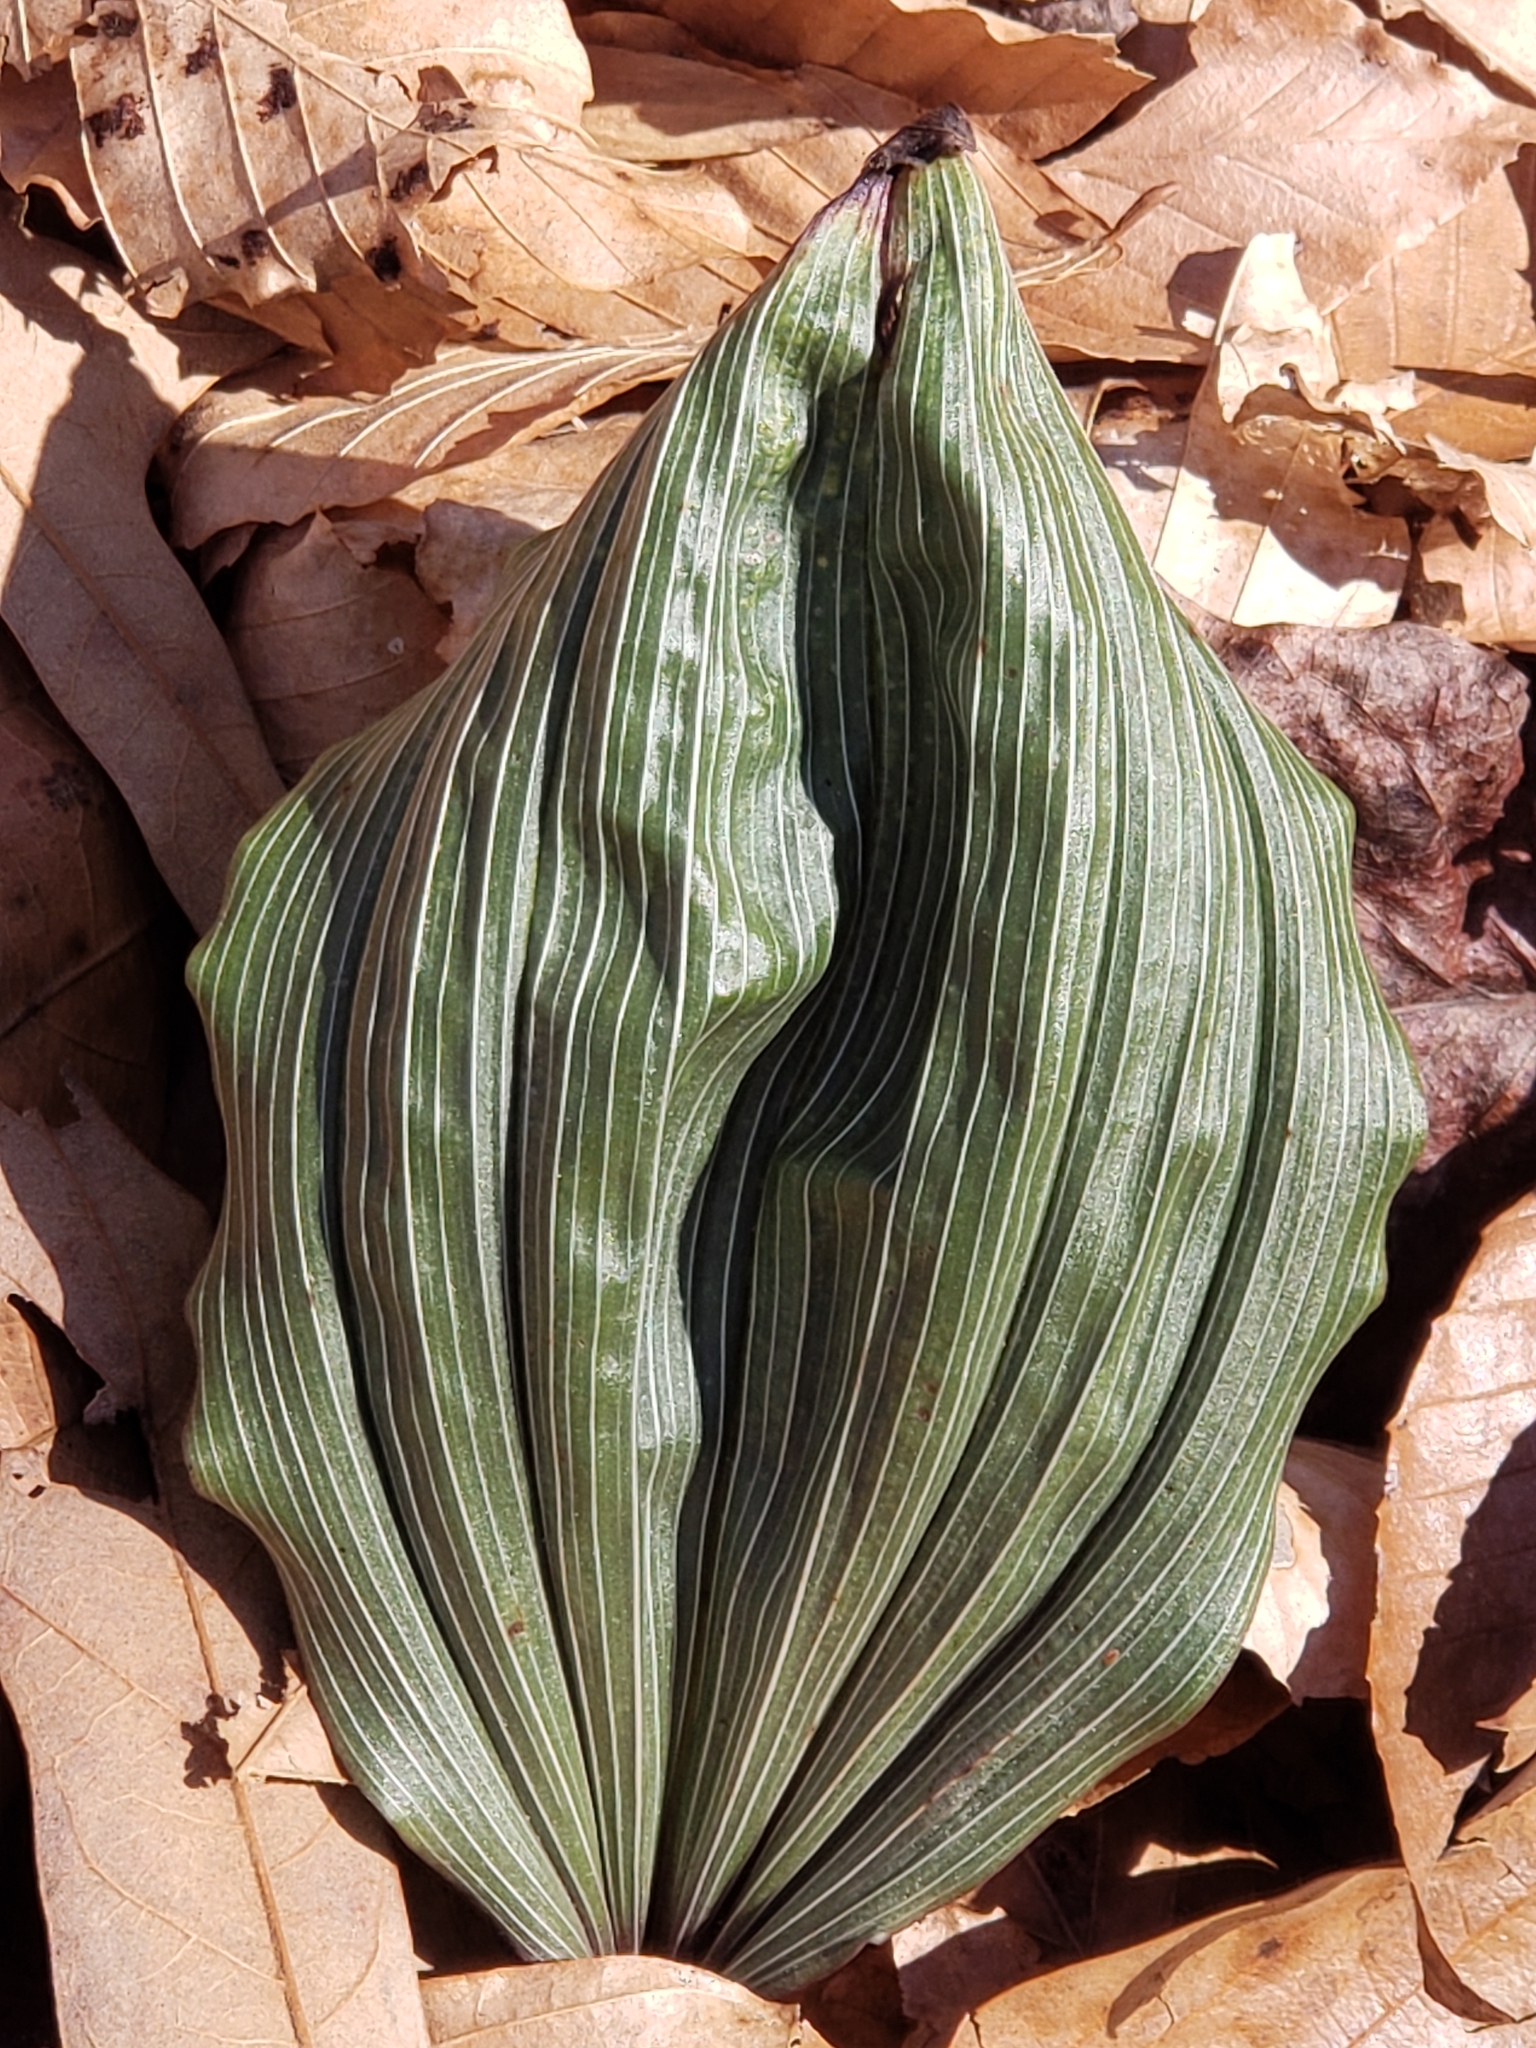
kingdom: Plantae
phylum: Tracheophyta
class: Liliopsida
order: Asparagales
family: Orchidaceae
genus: Aplectrum
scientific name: Aplectrum hyemale
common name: Adam-and-eve
